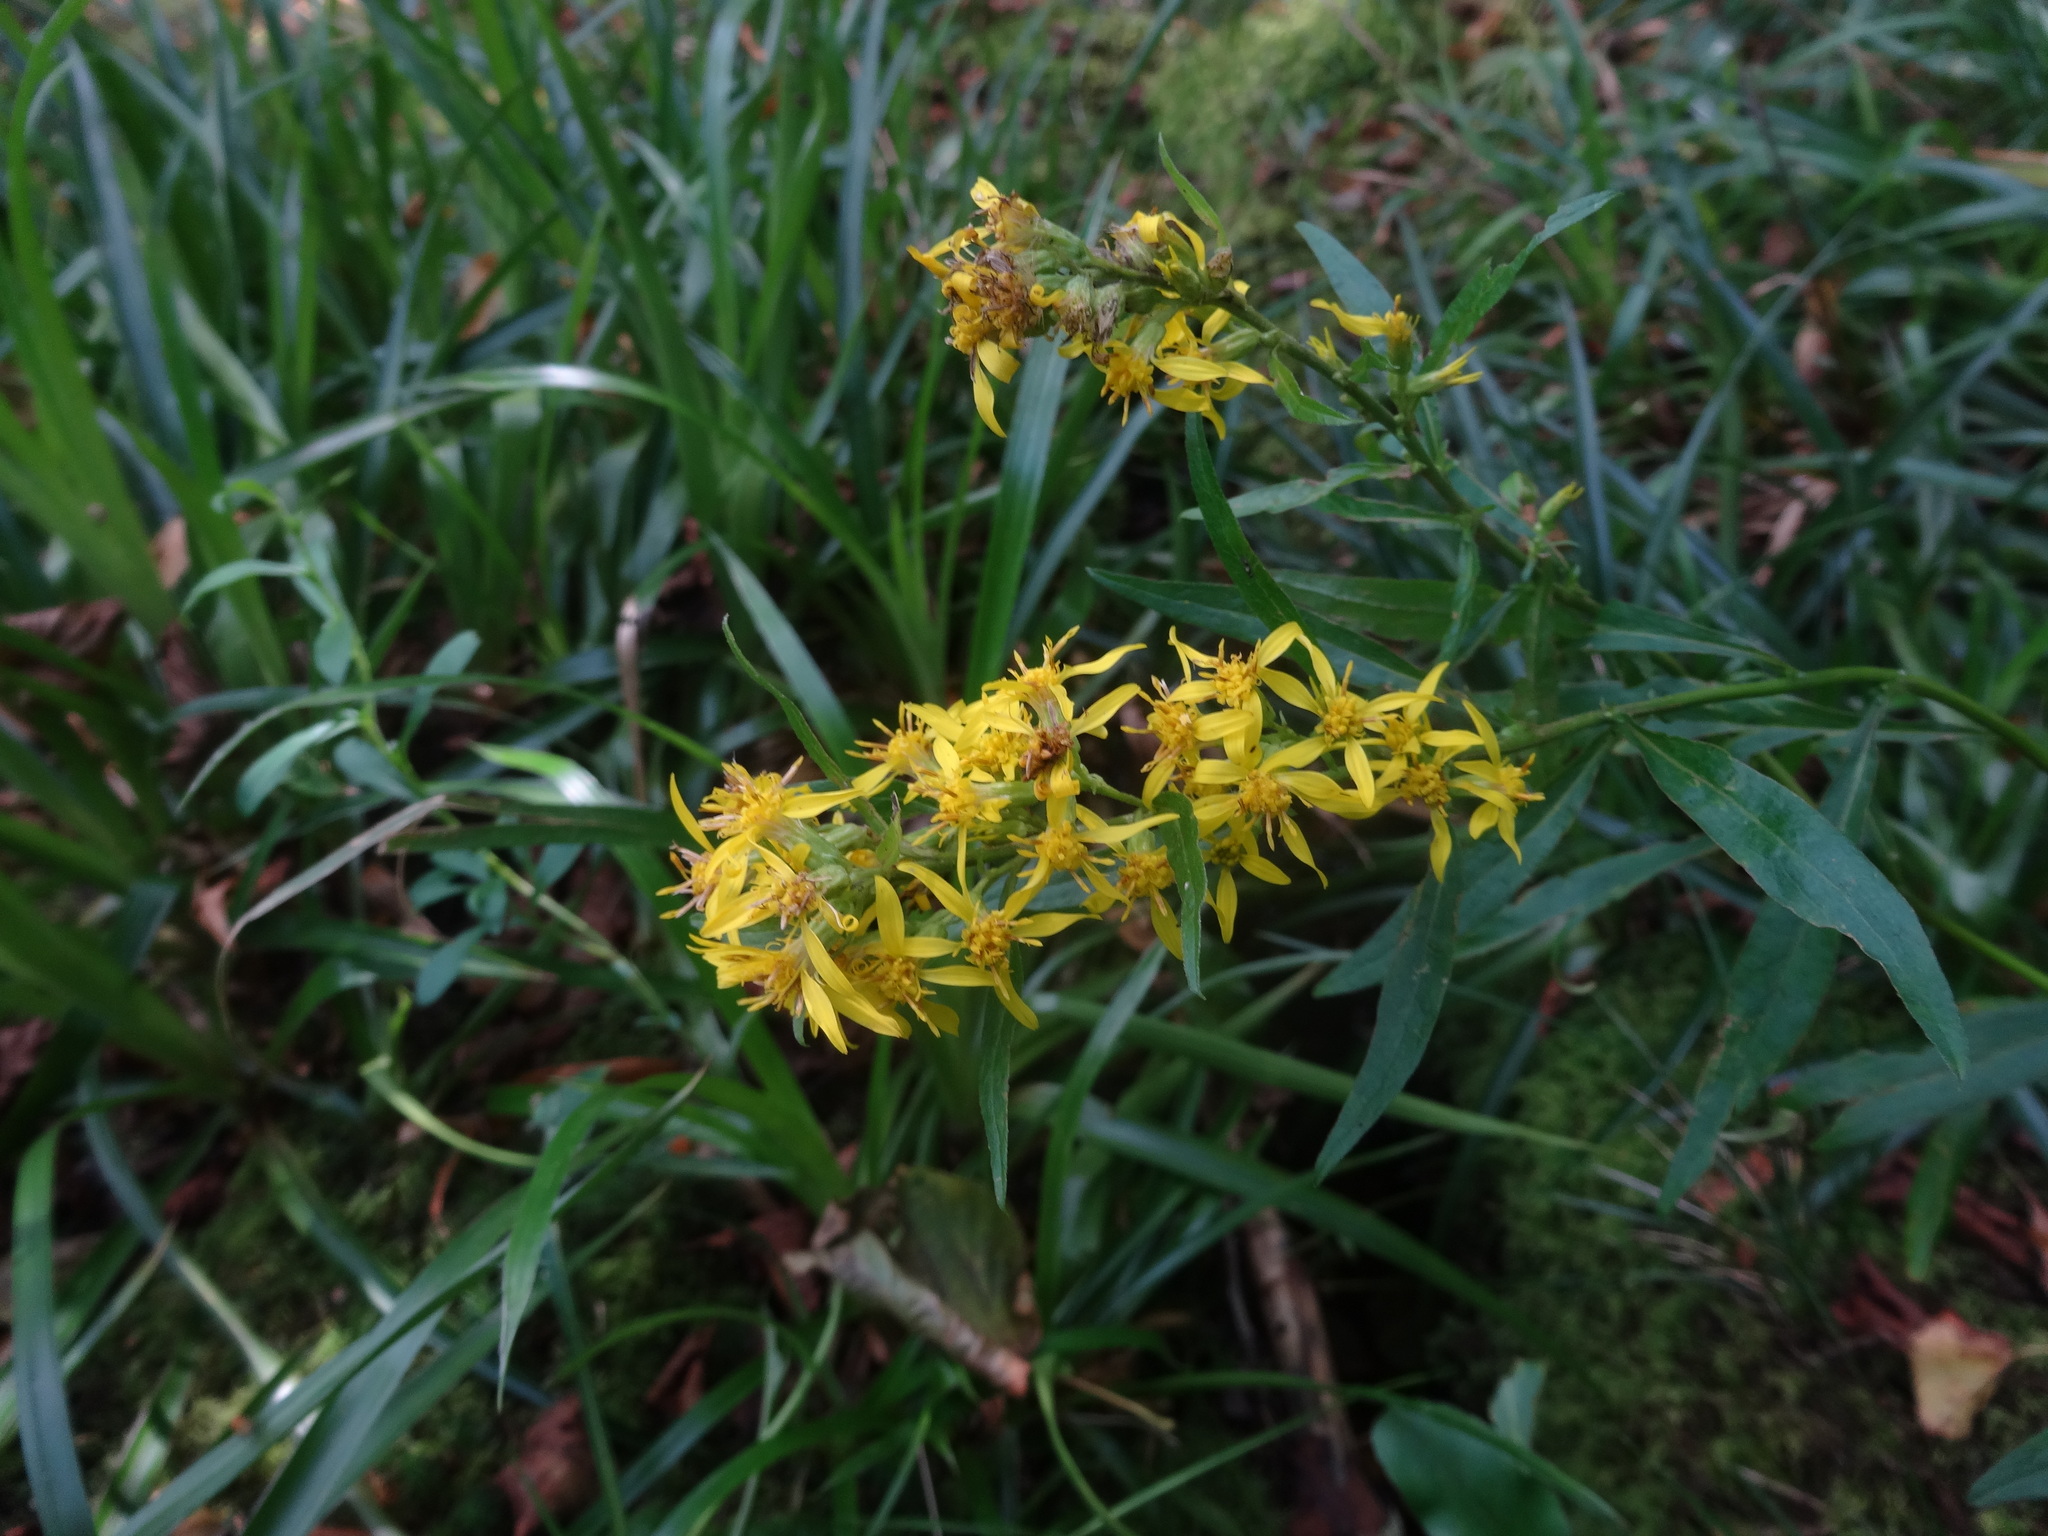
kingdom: Plantae
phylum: Tracheophyta
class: Magnoliopsida
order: Asterales
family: Asteraceae
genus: Solidago
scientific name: Solidago virgaurea
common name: Goldenrod
